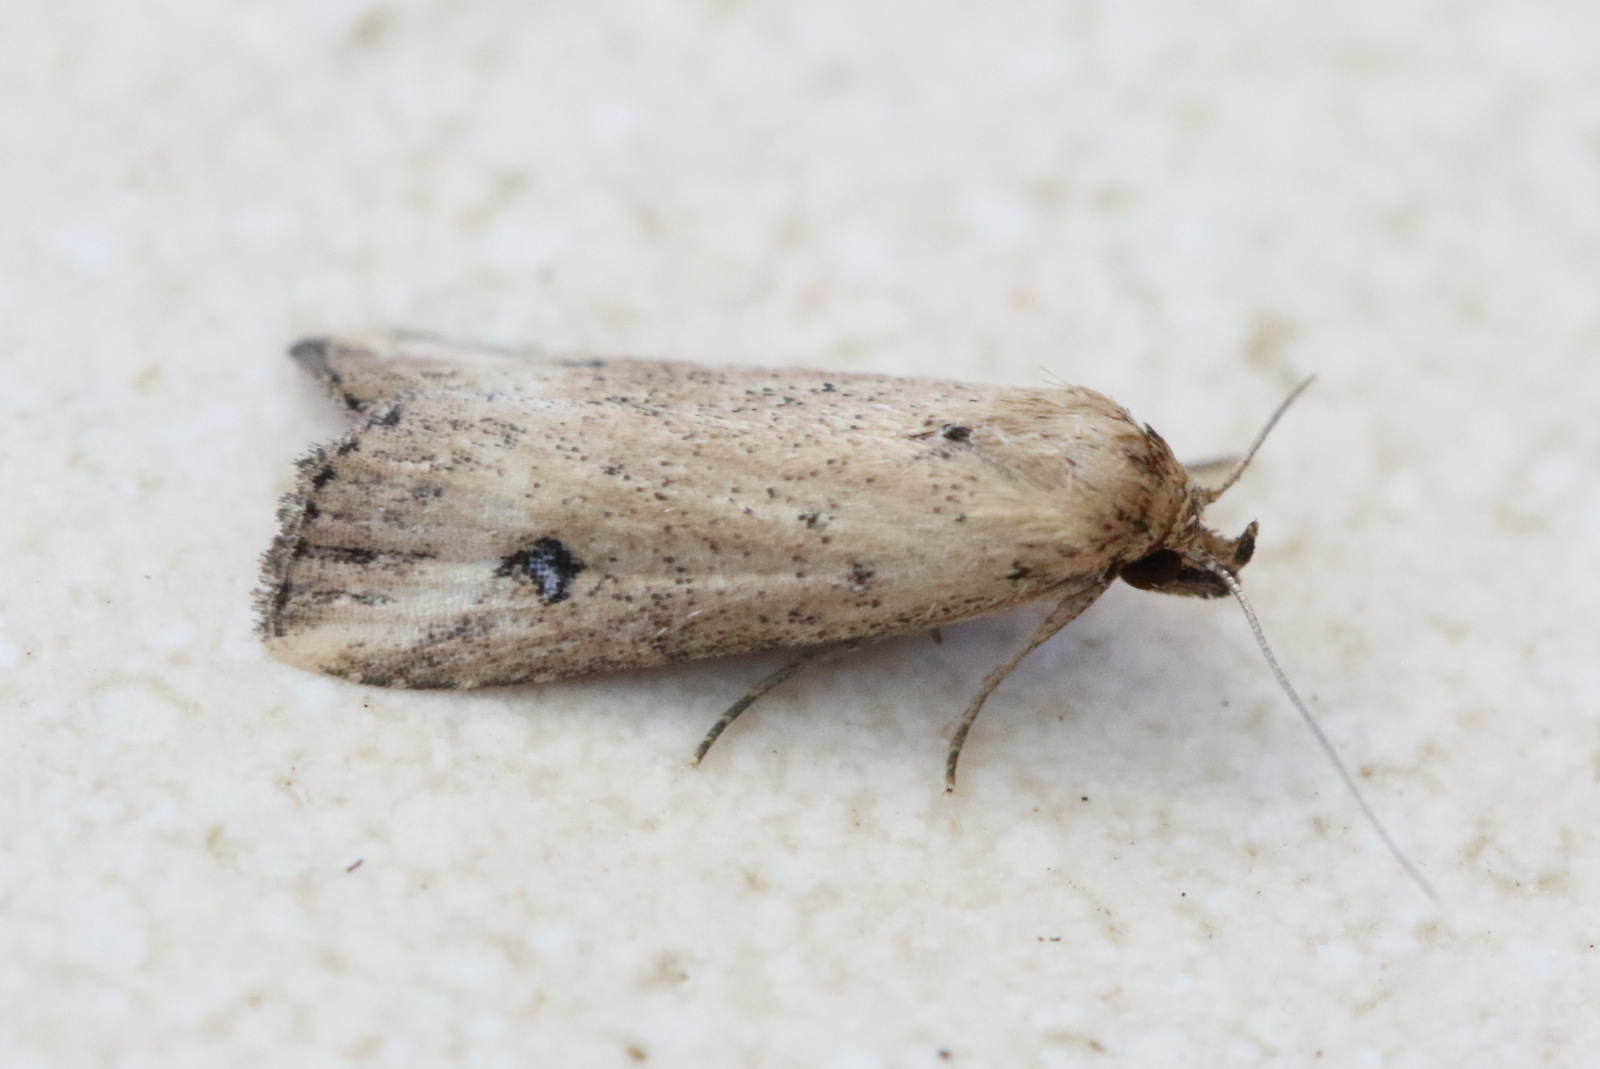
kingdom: Animalia
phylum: Arthropoda
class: Insecta
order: Lepidoptera
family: Erebidae
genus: Luceria
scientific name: Luceria oculalis
